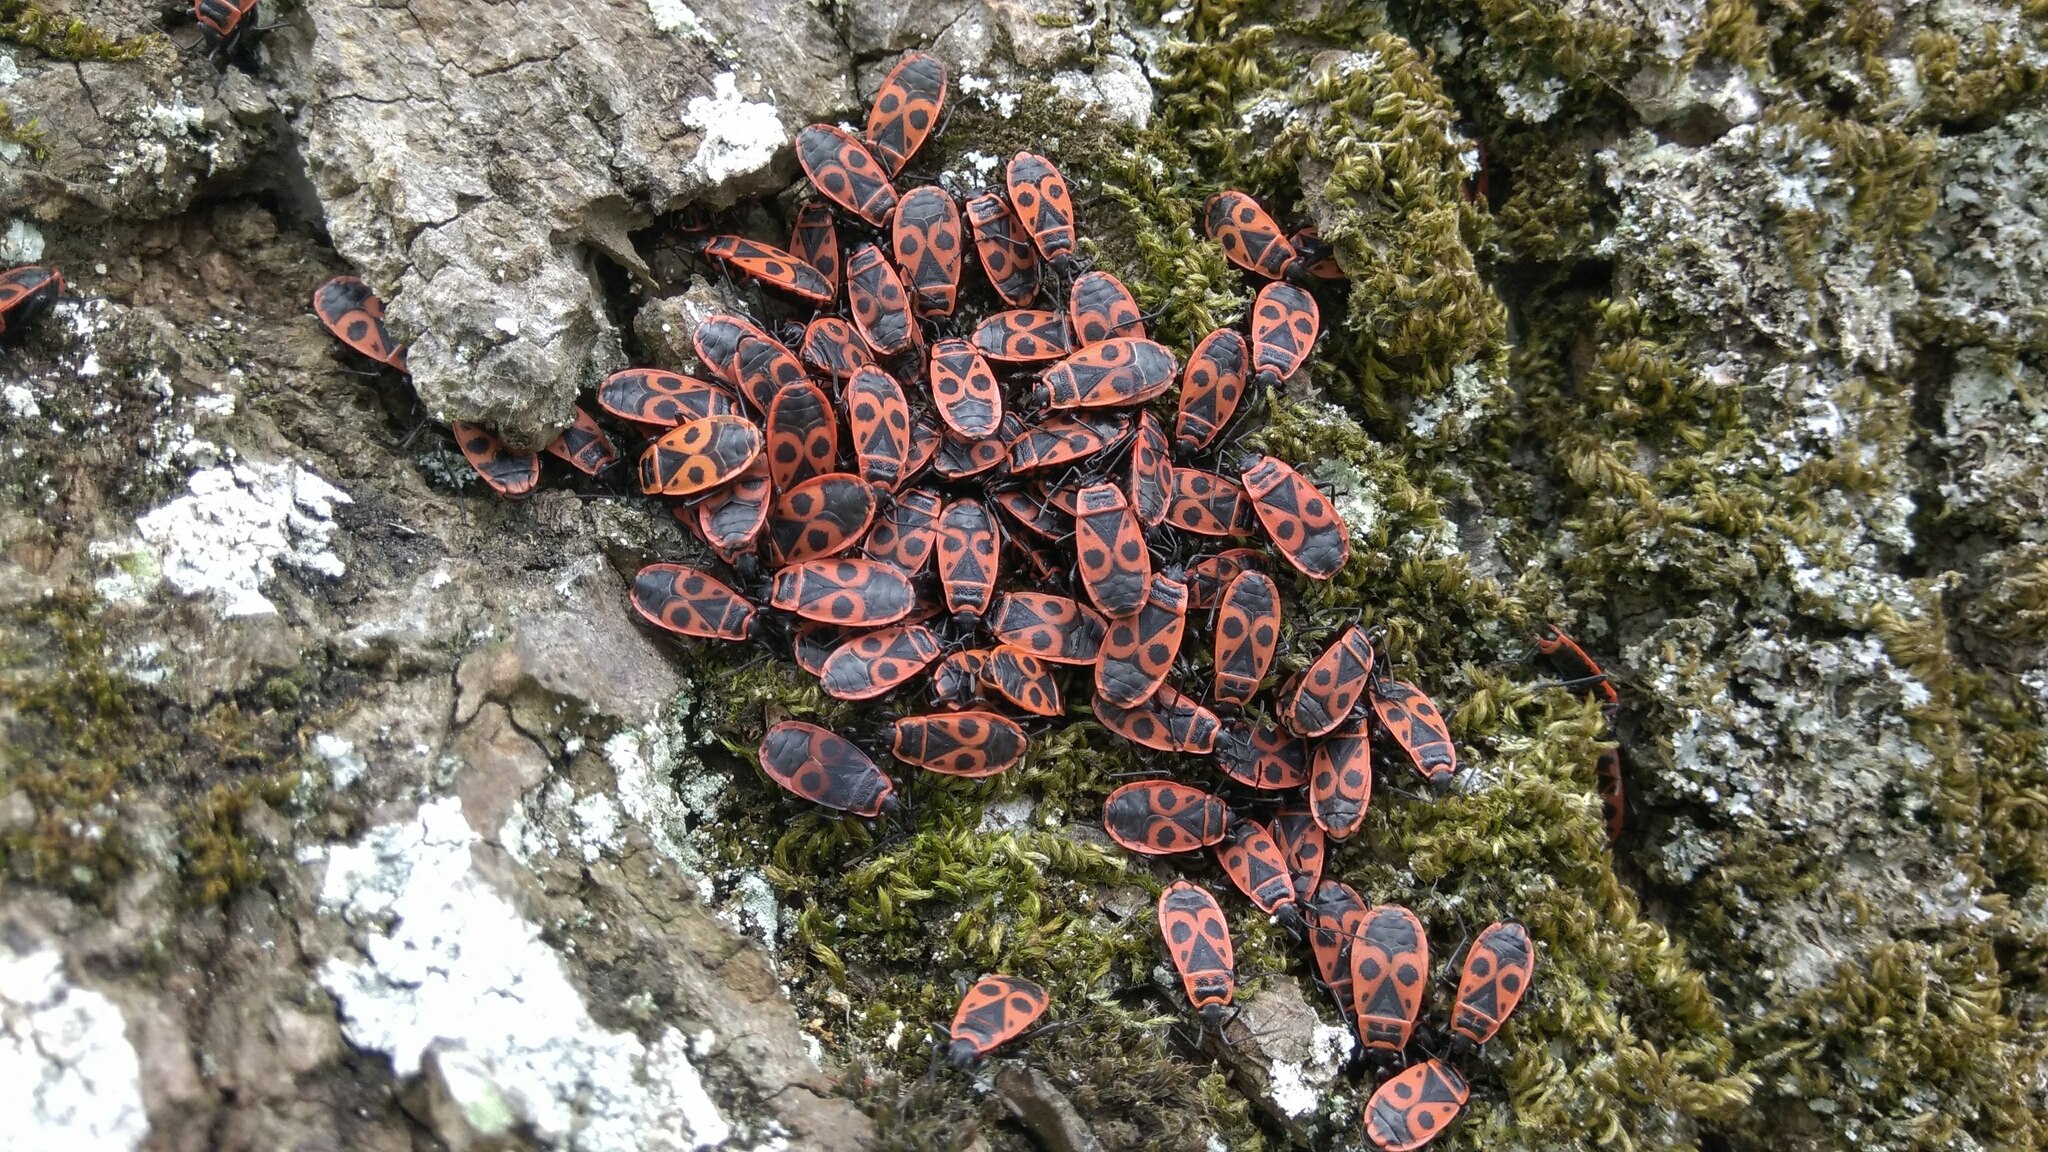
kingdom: Animalia
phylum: Arthropoda
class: Insecta
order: Hemiptera
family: Pyrrhocoridae
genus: Pyrrhocoris
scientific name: Pyrrhocoris apterus
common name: Firebug
